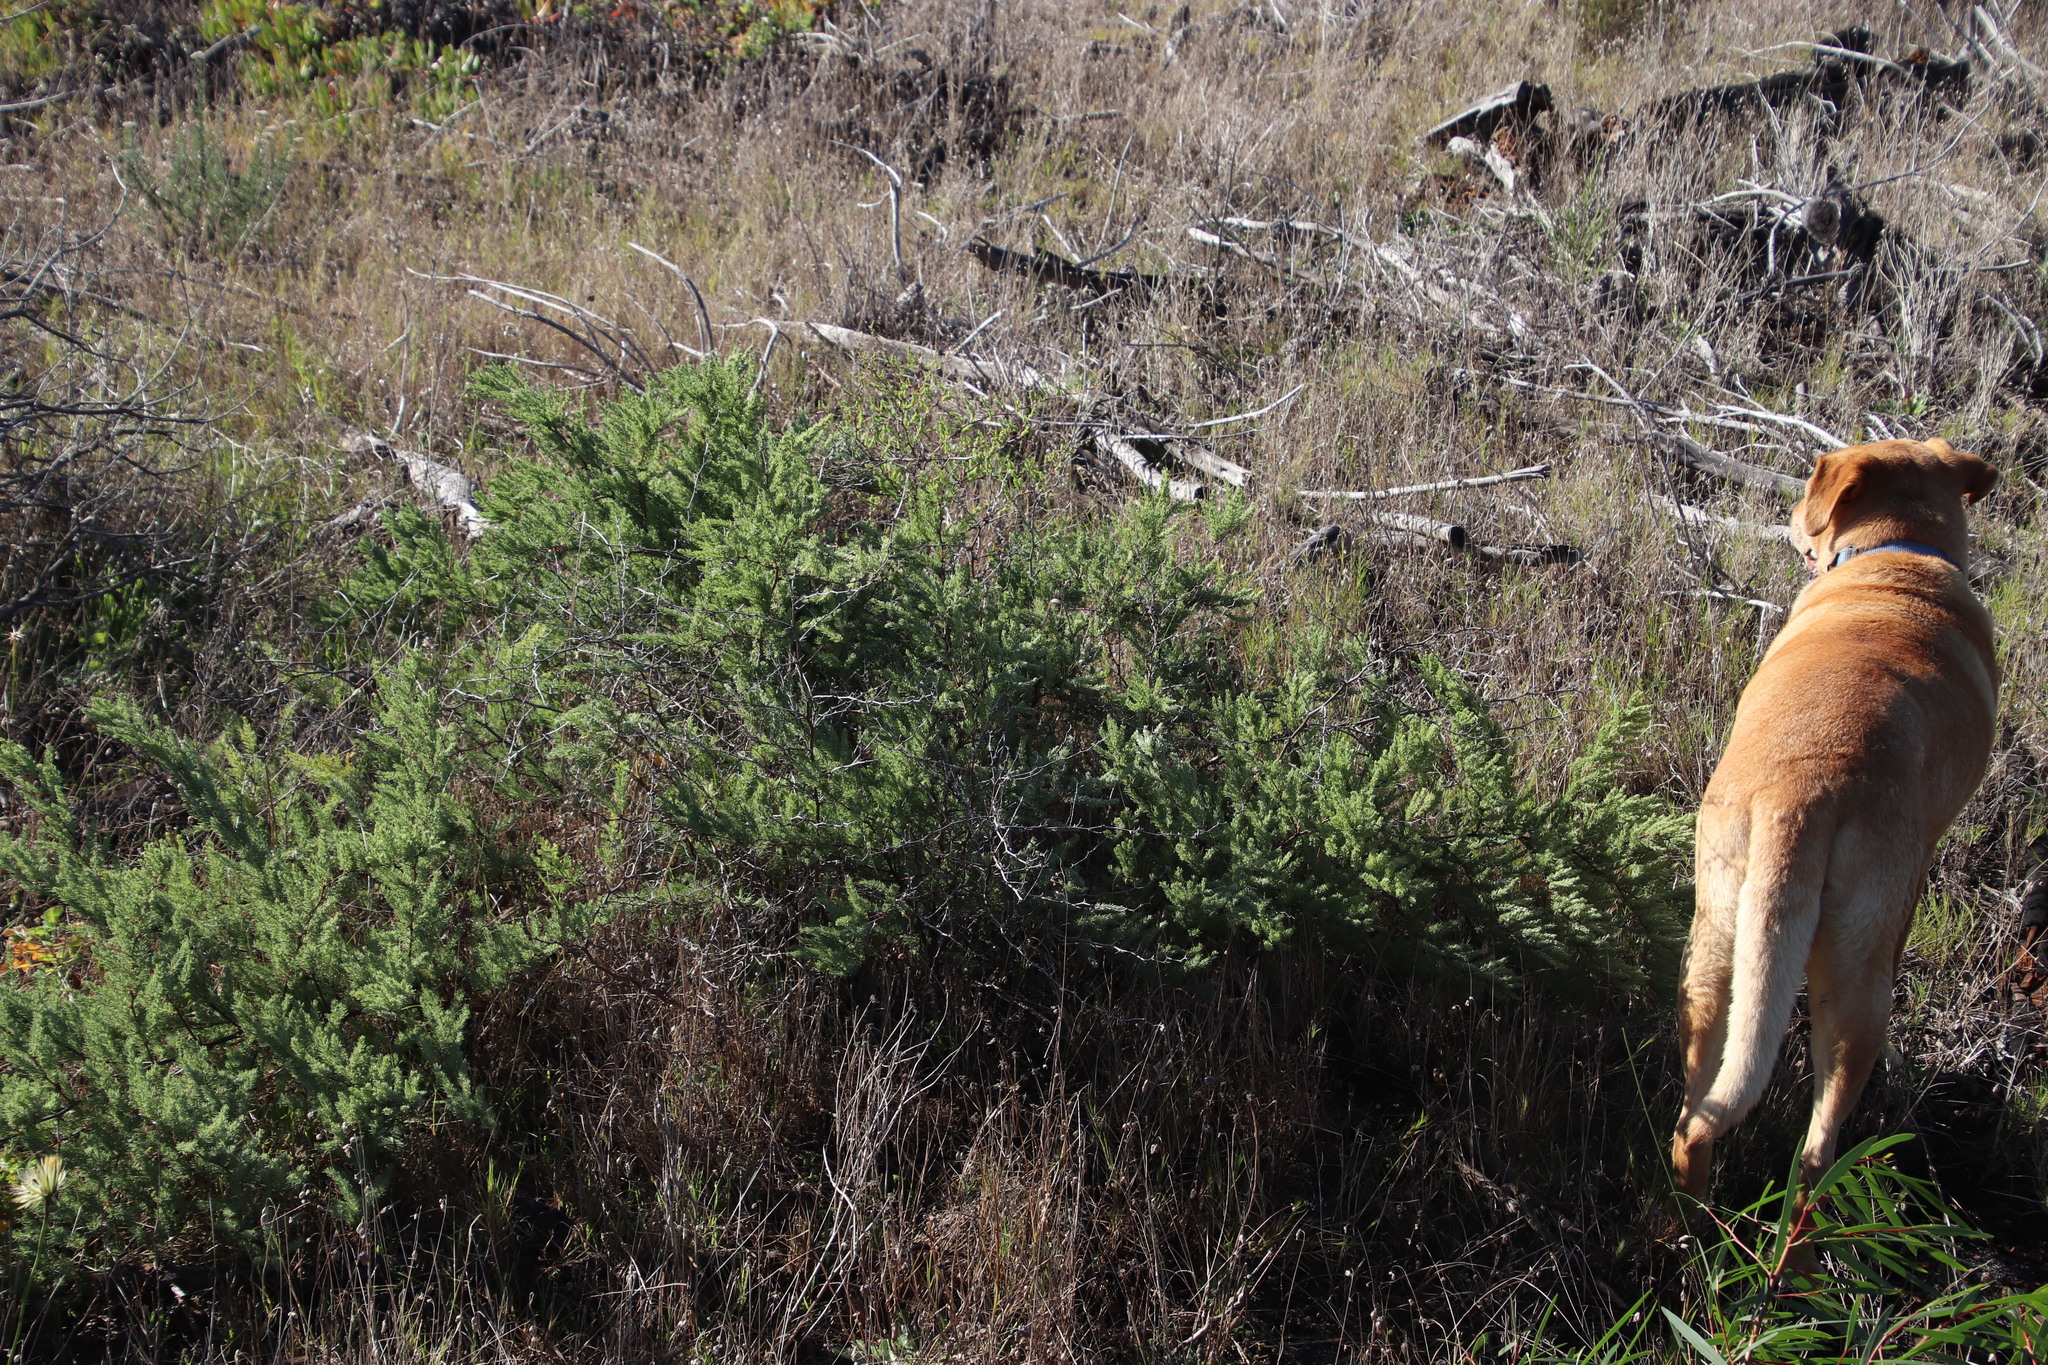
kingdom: Plantae
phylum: Tracheophyta
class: Liliopsida
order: Asparagales
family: Asparagaceae
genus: Asparagus
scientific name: Asparagus rubicundus
